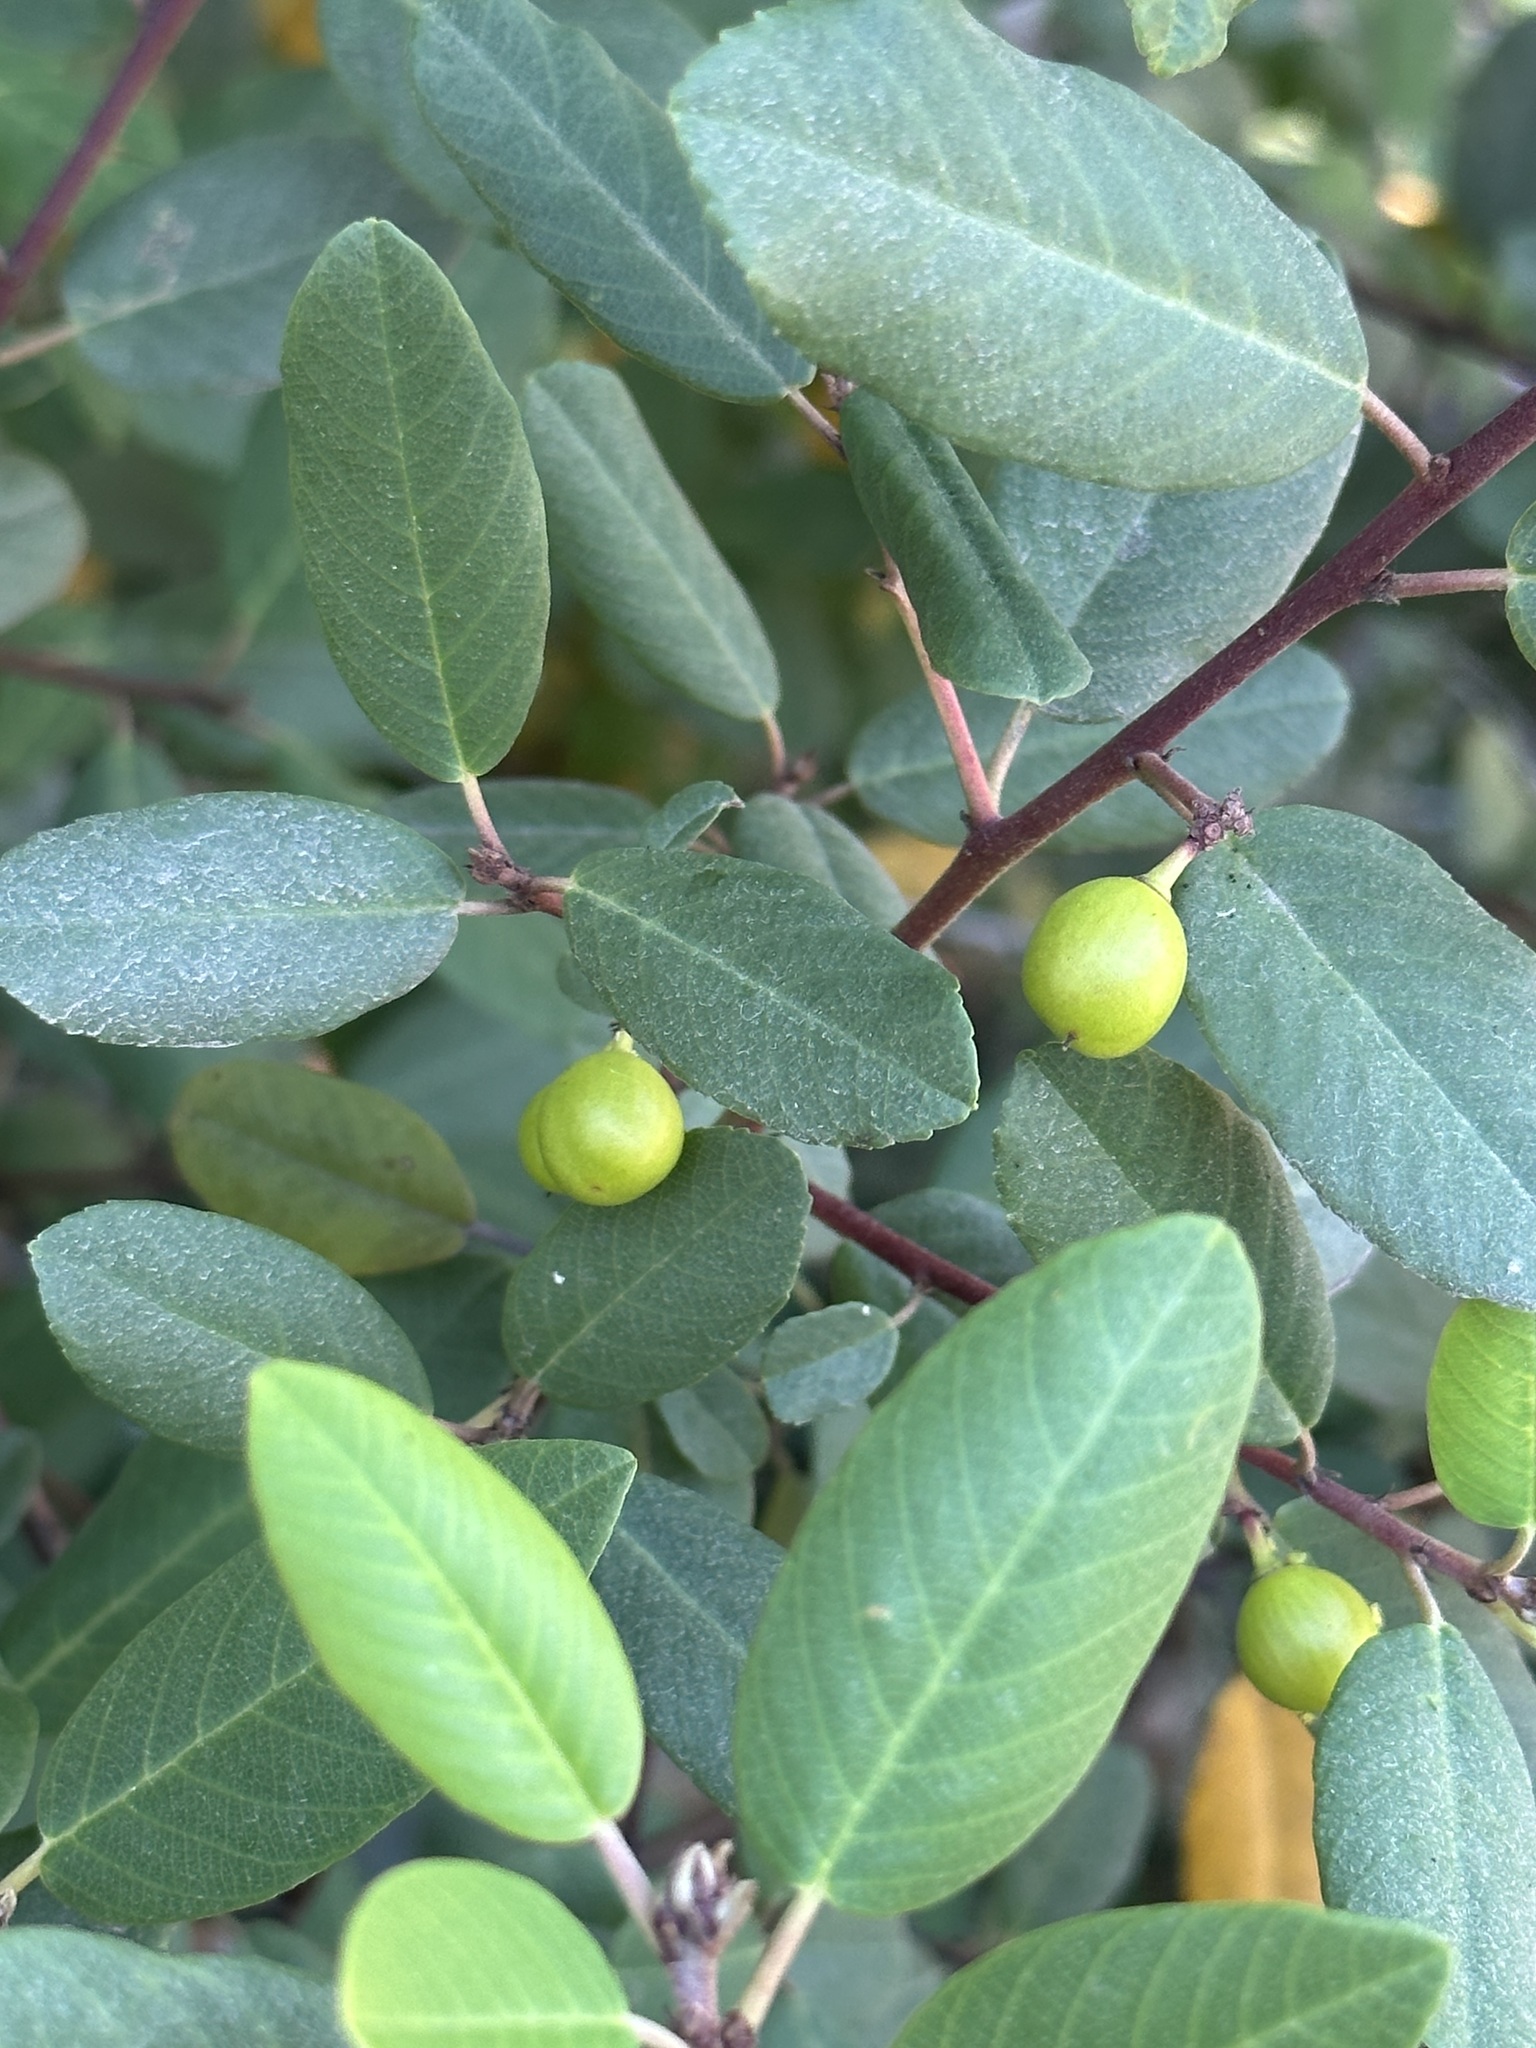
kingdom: Plantae
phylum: Tracheophyta
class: Magnoliopsida
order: Rosales
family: Rhamnaceae
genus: Frangula
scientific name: Frangula californica
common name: California buckthorn
